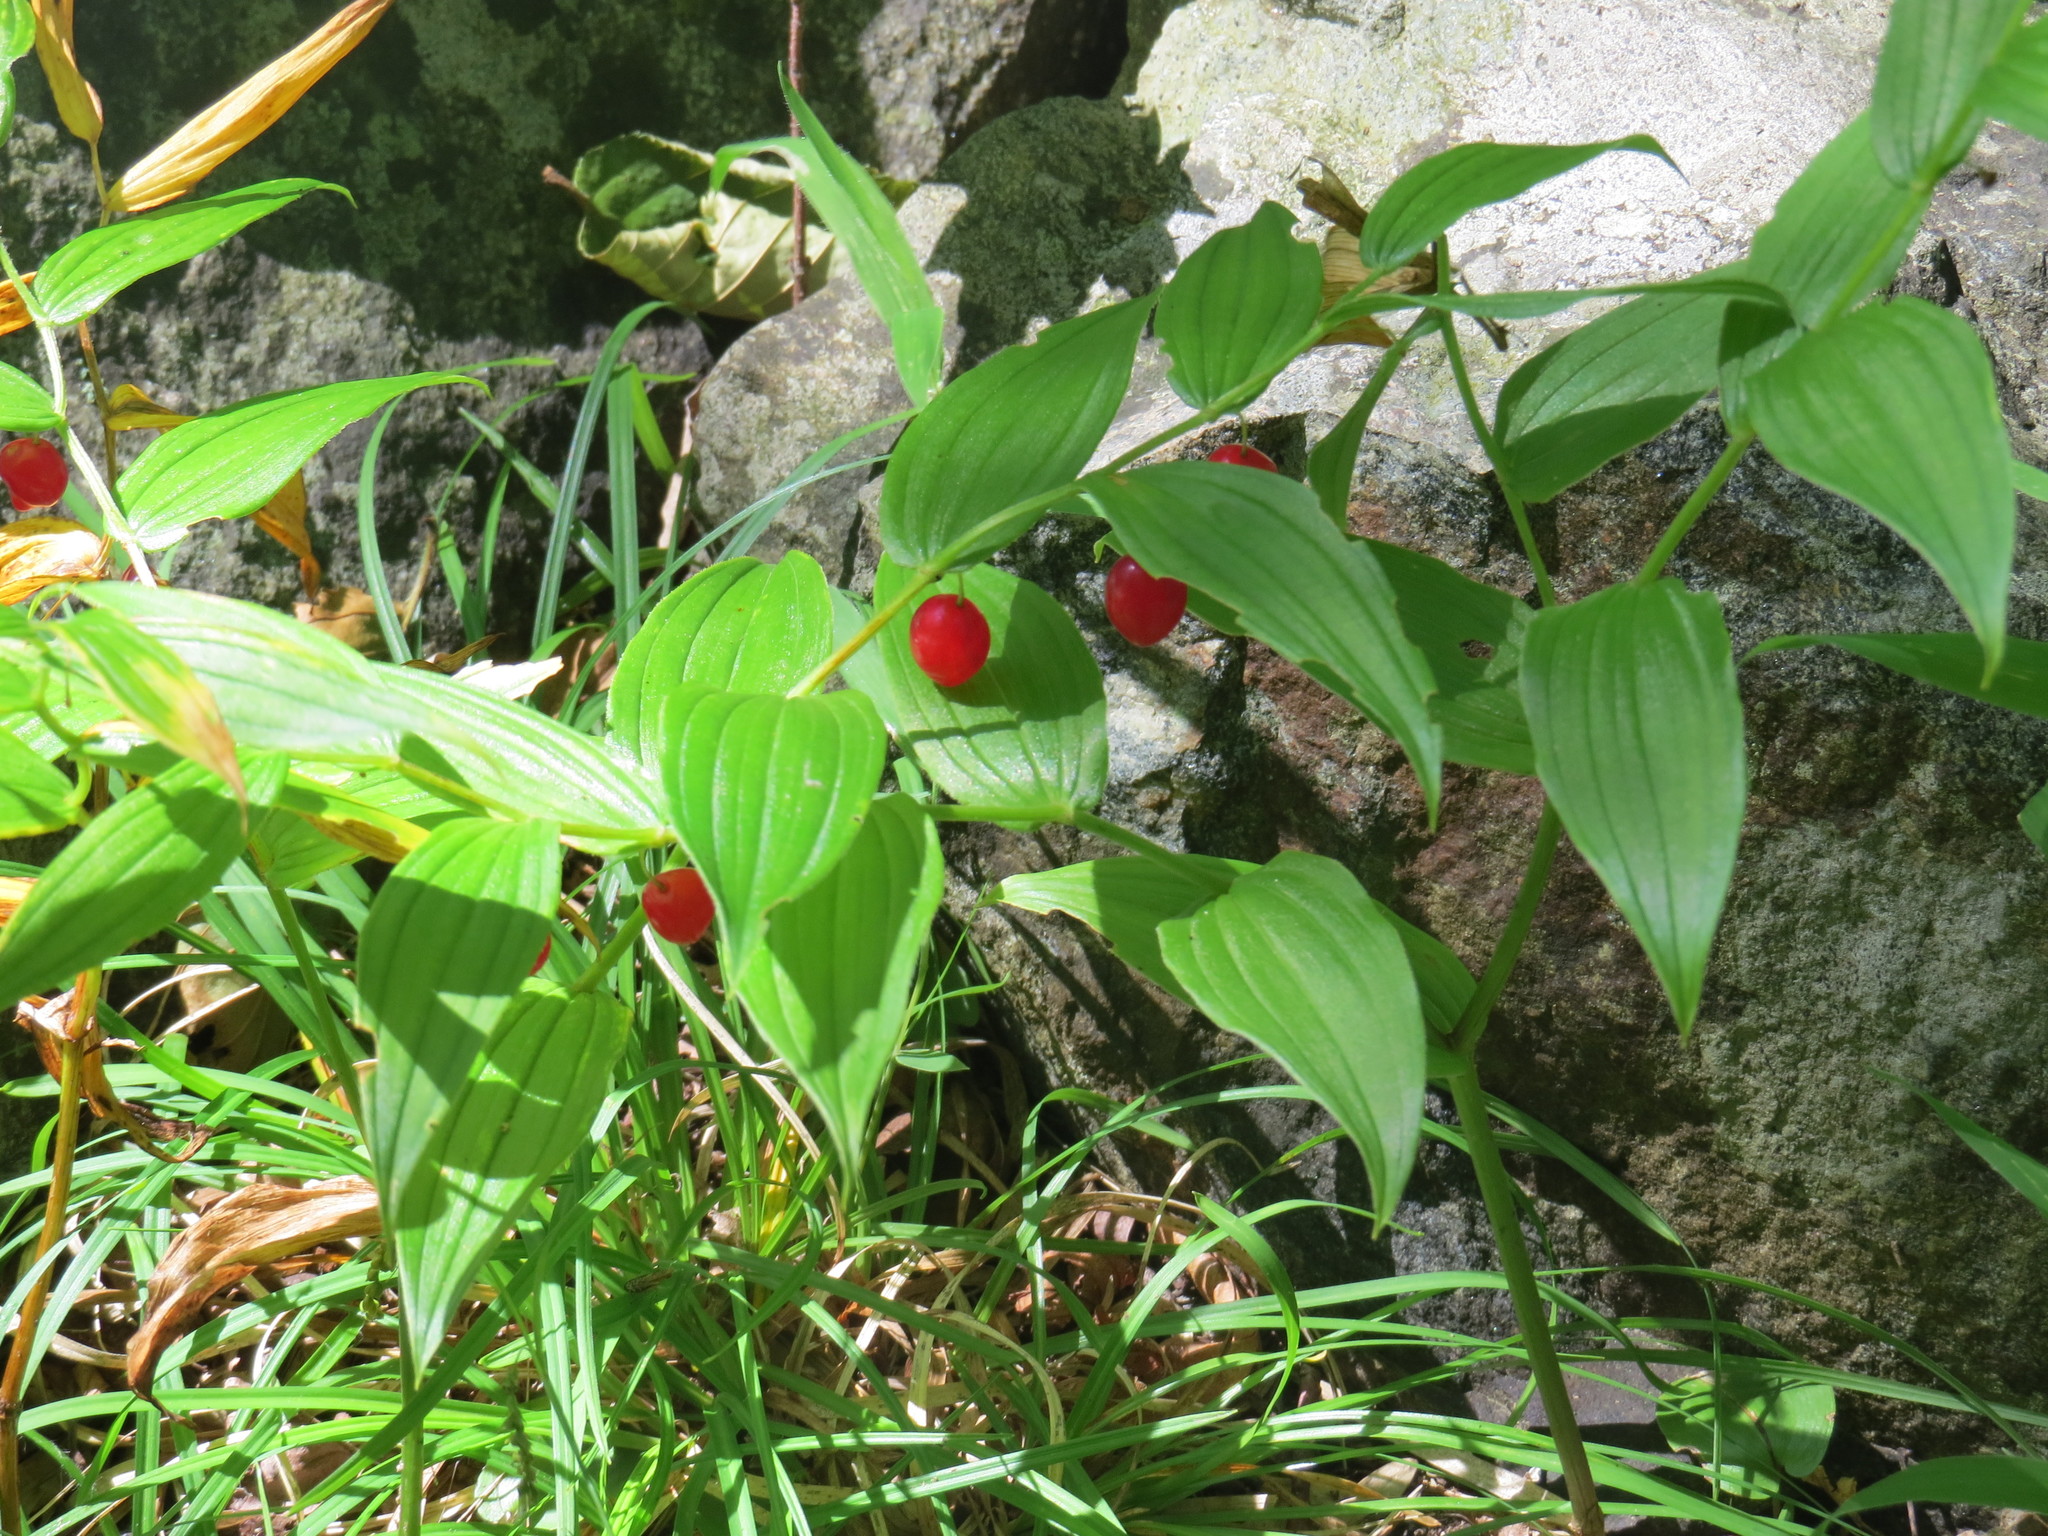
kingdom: Plantae
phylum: Tracheophyta
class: Liliopsida
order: Liliales
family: Liliaceae
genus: Streptopus
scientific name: Streptopus lanceolatus
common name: Rose mandarin
